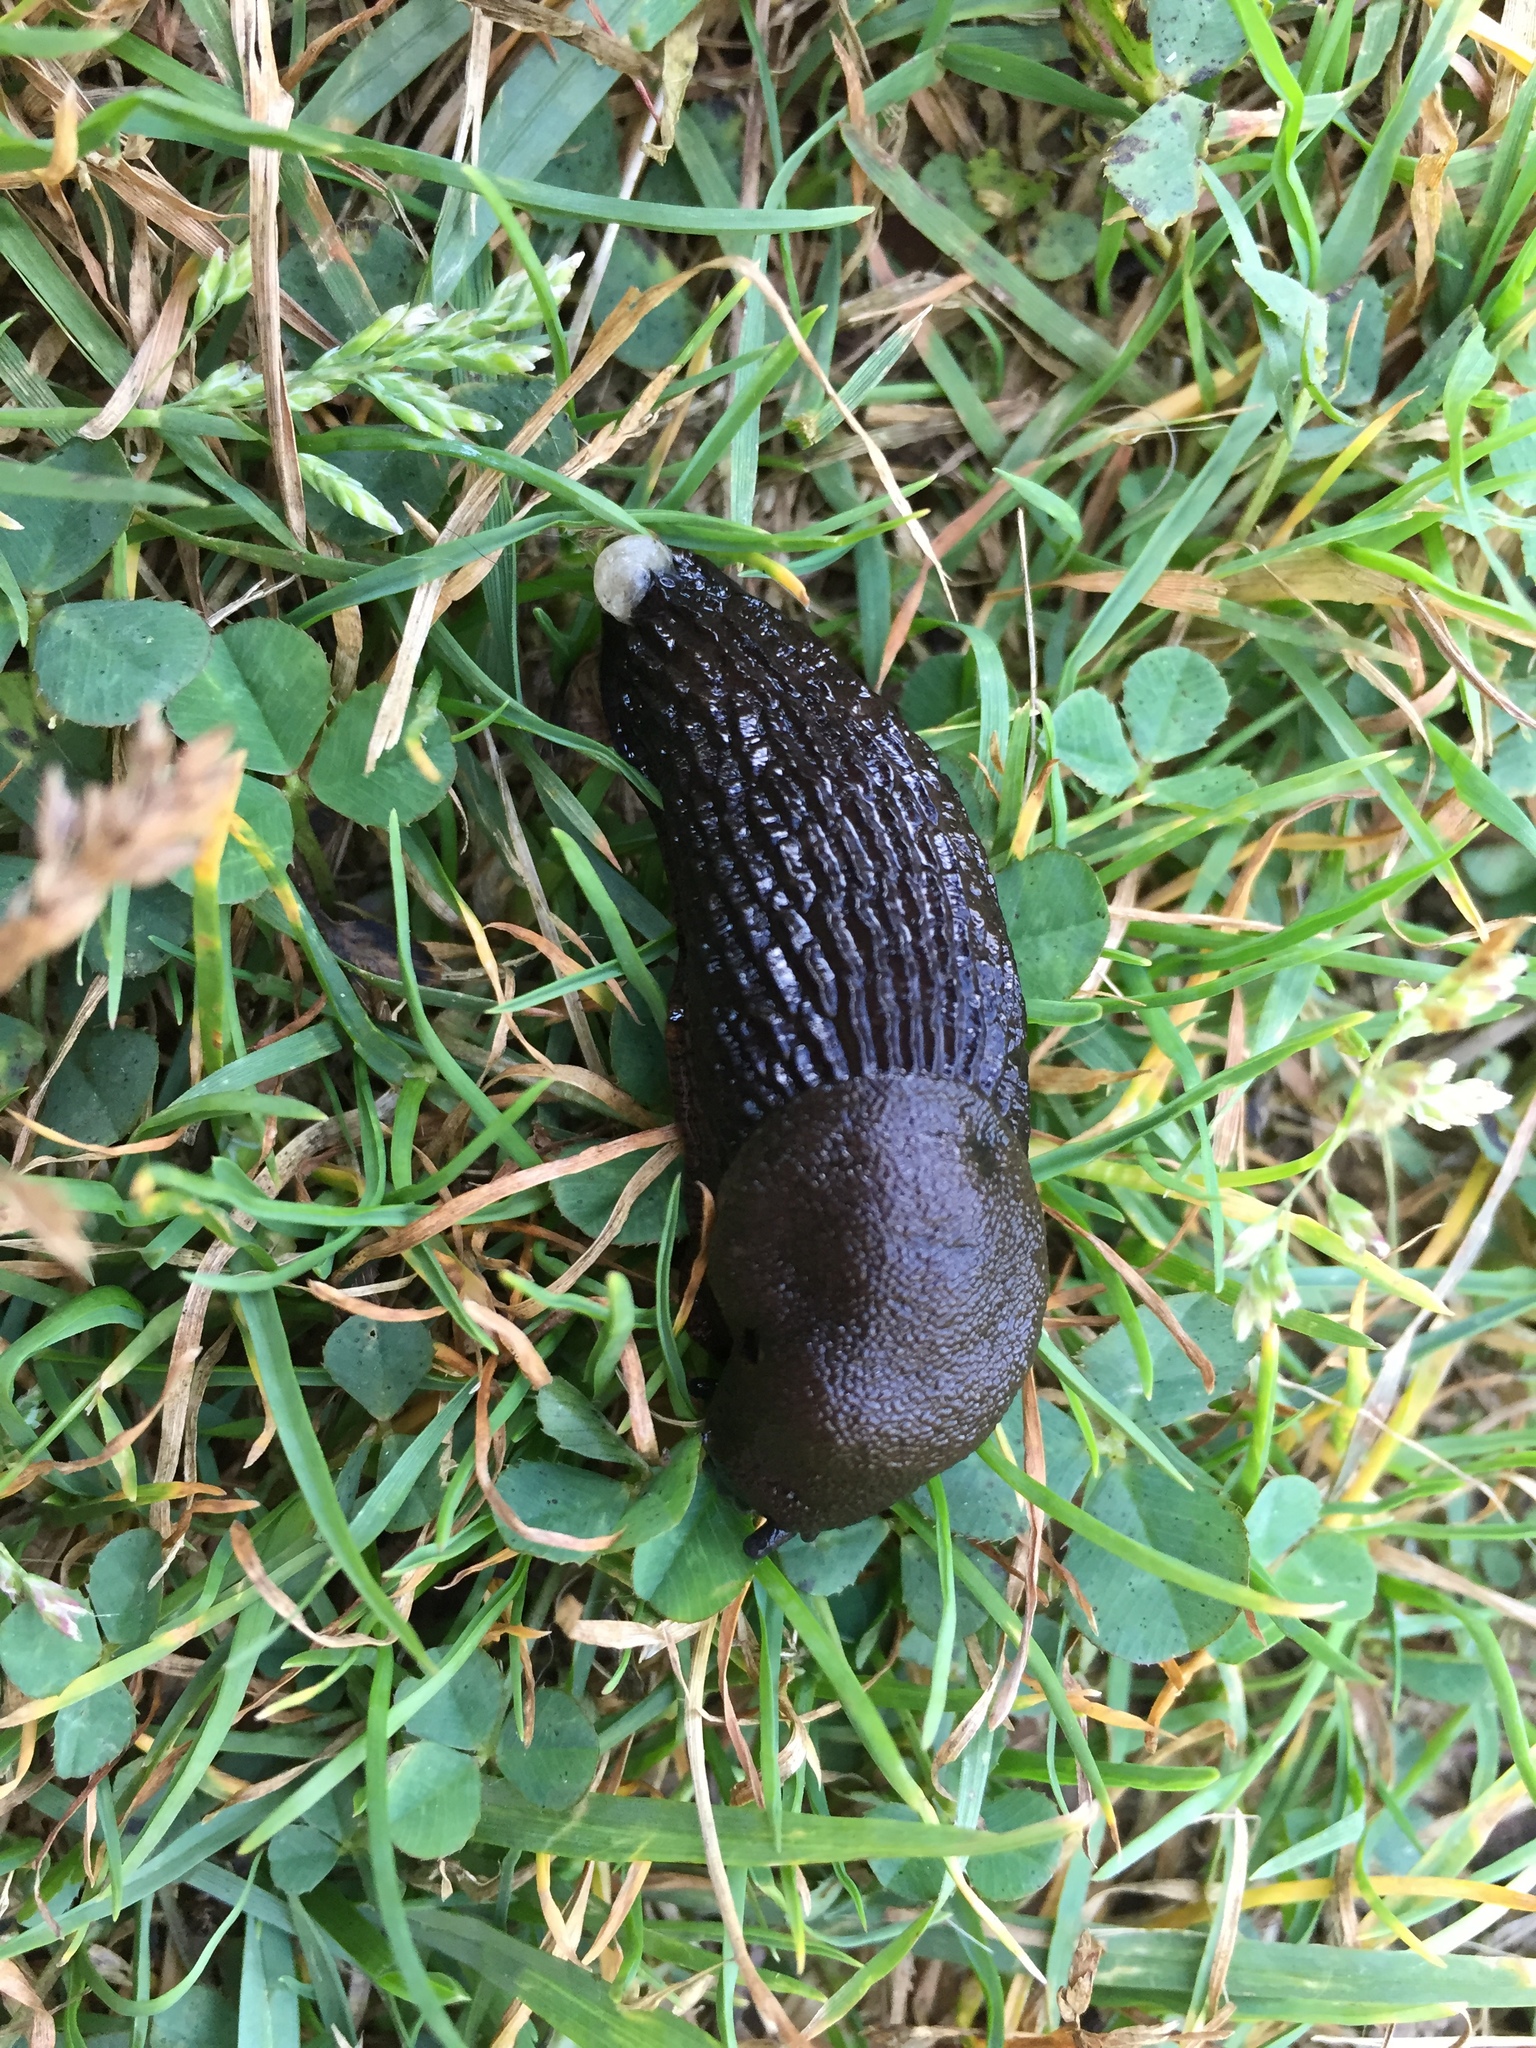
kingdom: Animalia
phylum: Mollusca
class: Gastropoda
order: Stylommatophora
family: Arionidae
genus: Arion
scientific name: Arion
